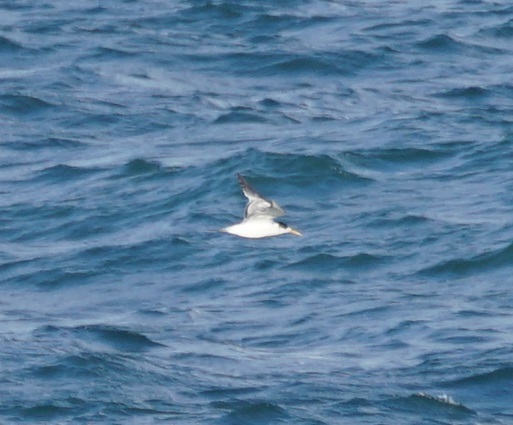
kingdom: Animalia
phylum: Chordata
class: Aves
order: Charadriiformes
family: Laridae
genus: Thalasseus
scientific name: Thalasseus bergii
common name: Greater crested tern
